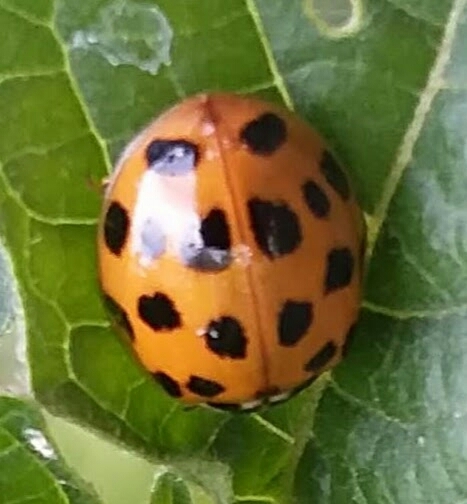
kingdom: Animalia
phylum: Arthropoda
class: Insecta
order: Coleoptera
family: Coccinellidae
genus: Harmonia
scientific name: Harmonia axyridis
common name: Harlequin ladybird
